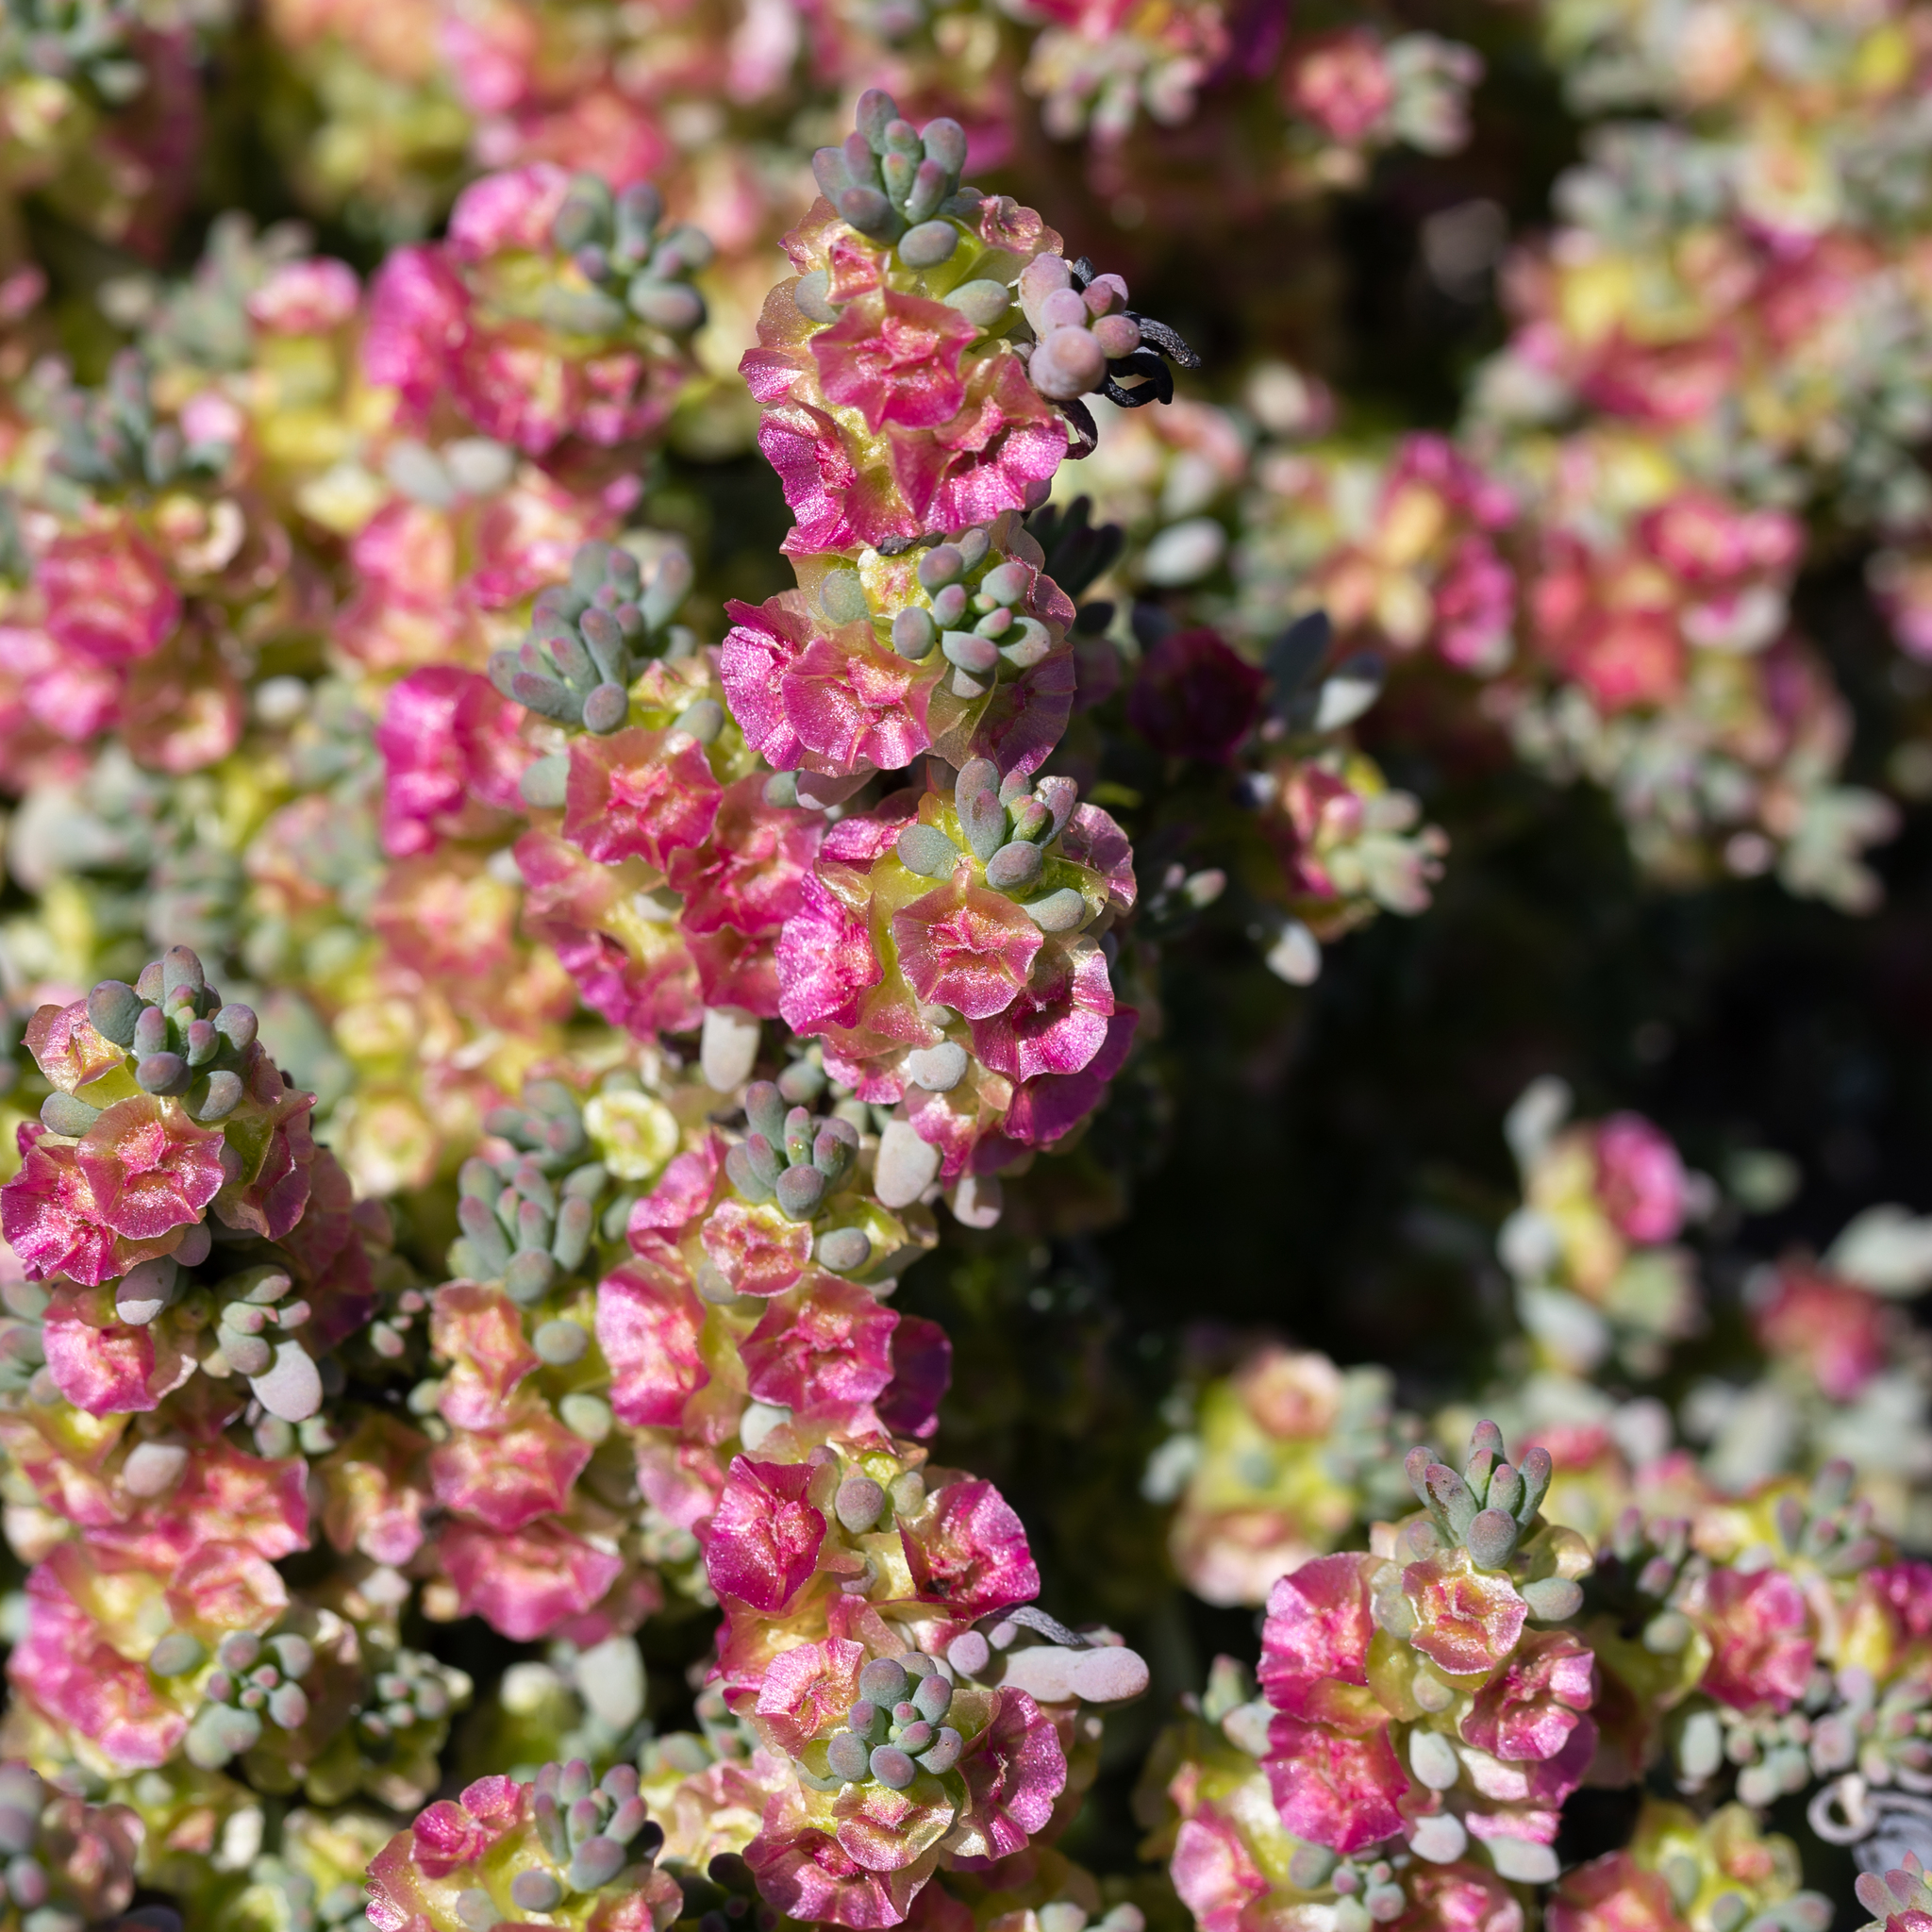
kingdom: Plantae
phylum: Tracheophyta
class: Magnoliopsida
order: Caryophyllales
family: Amaranthaceae
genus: Maireana
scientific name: Maireana erioclada
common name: Rosy bluebush
